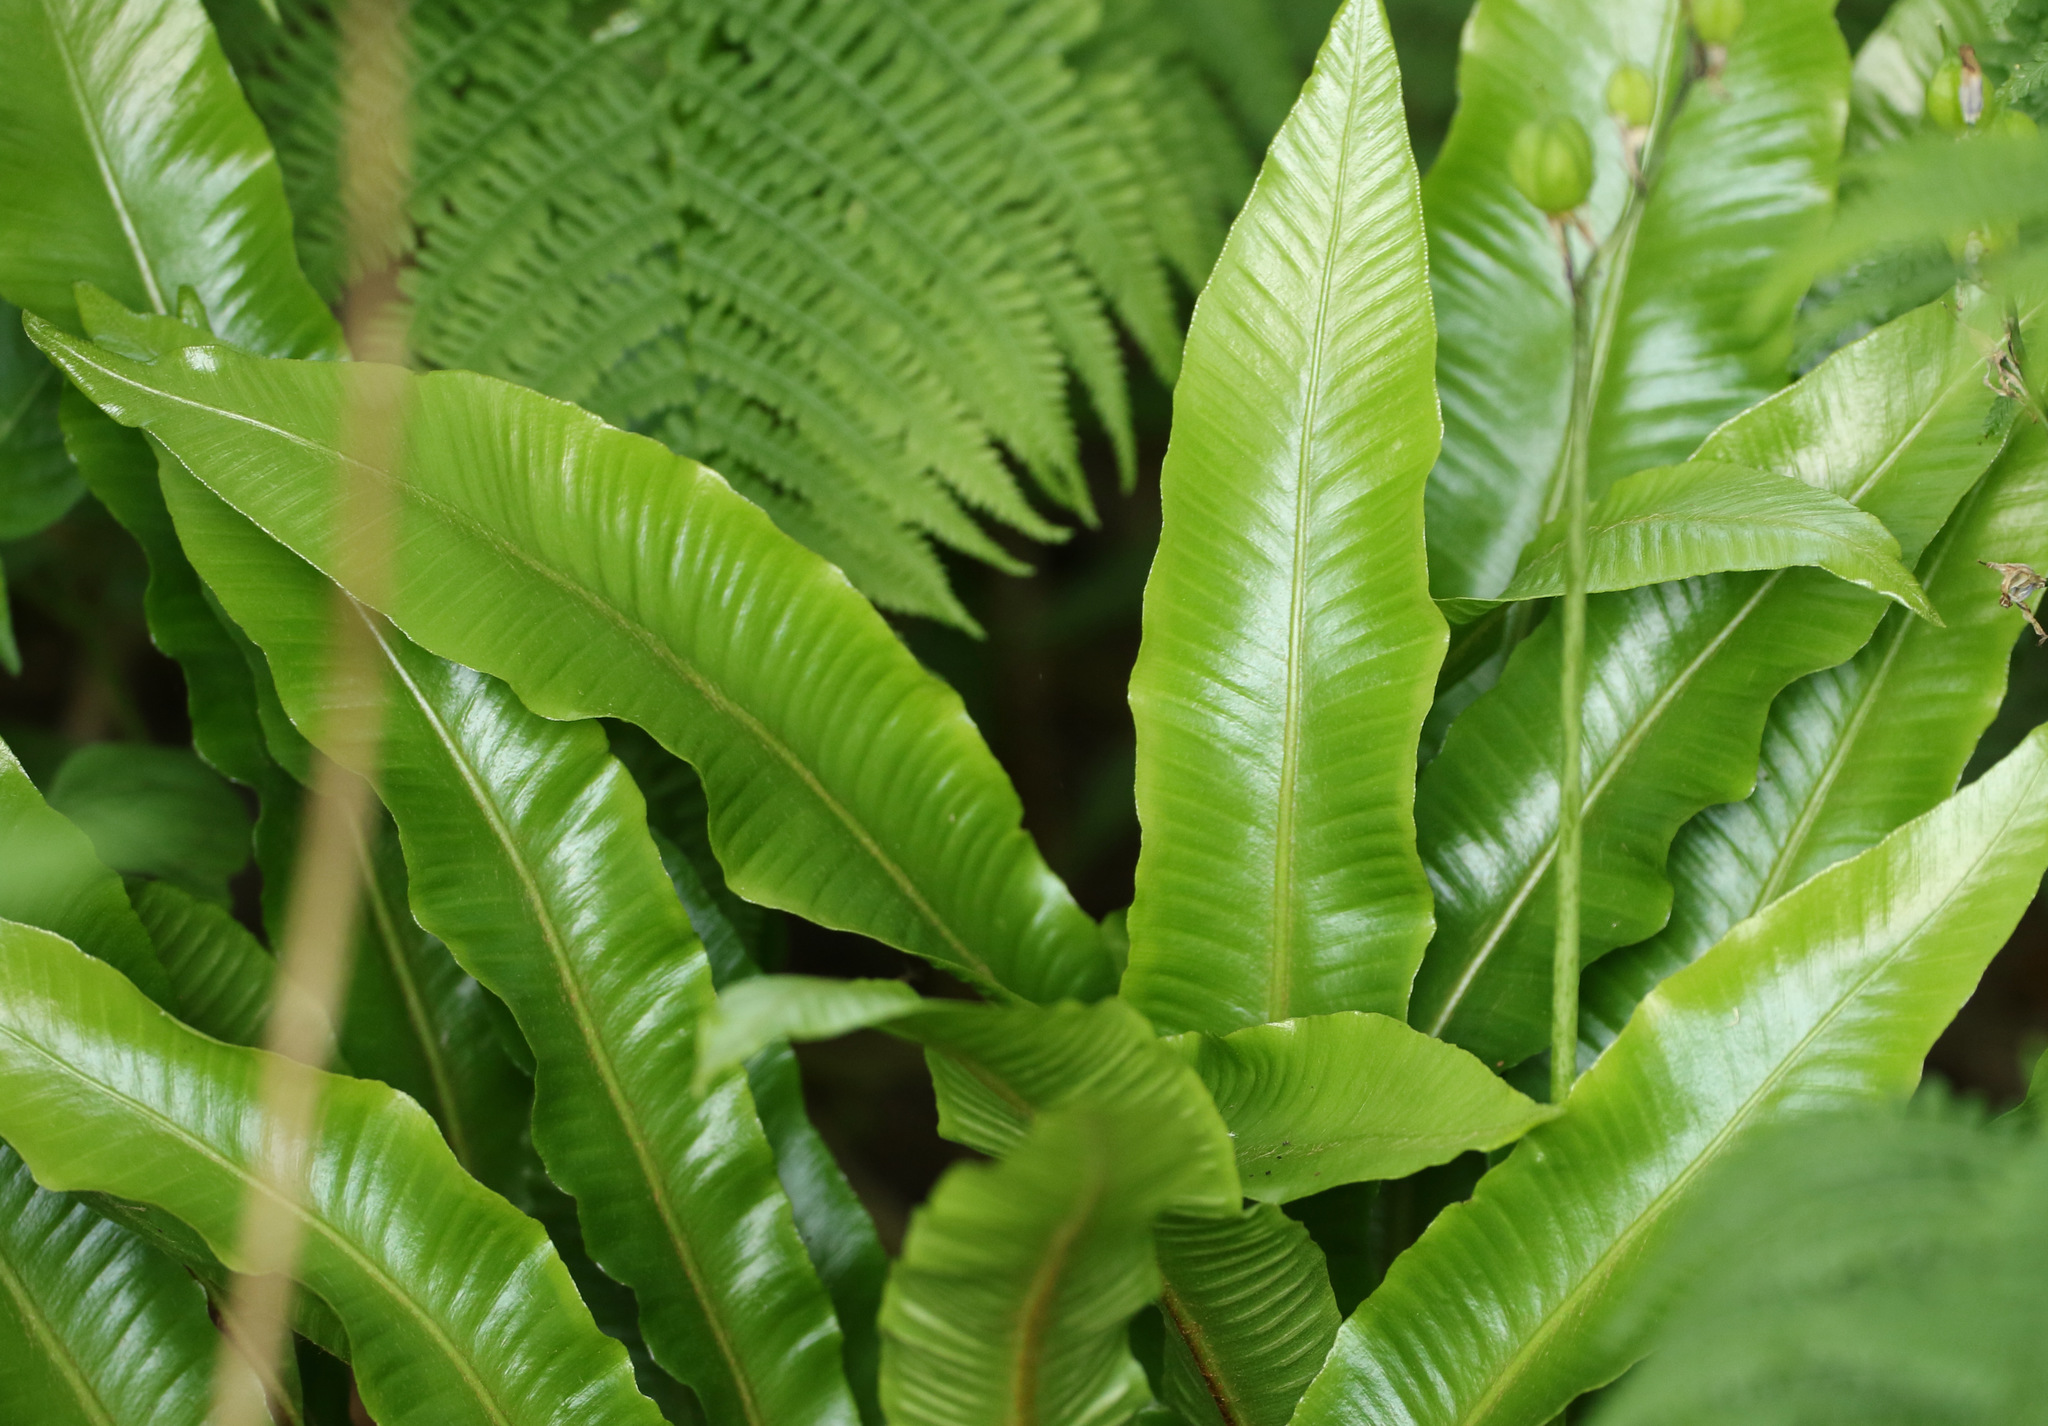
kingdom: Plantae
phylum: Tracheophyta
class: Polypodiopsida
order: Polypodiales
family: Aspleniaceae
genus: Asplenium
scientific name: Asplenium scolopendrium
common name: Hart's-tongue fern
